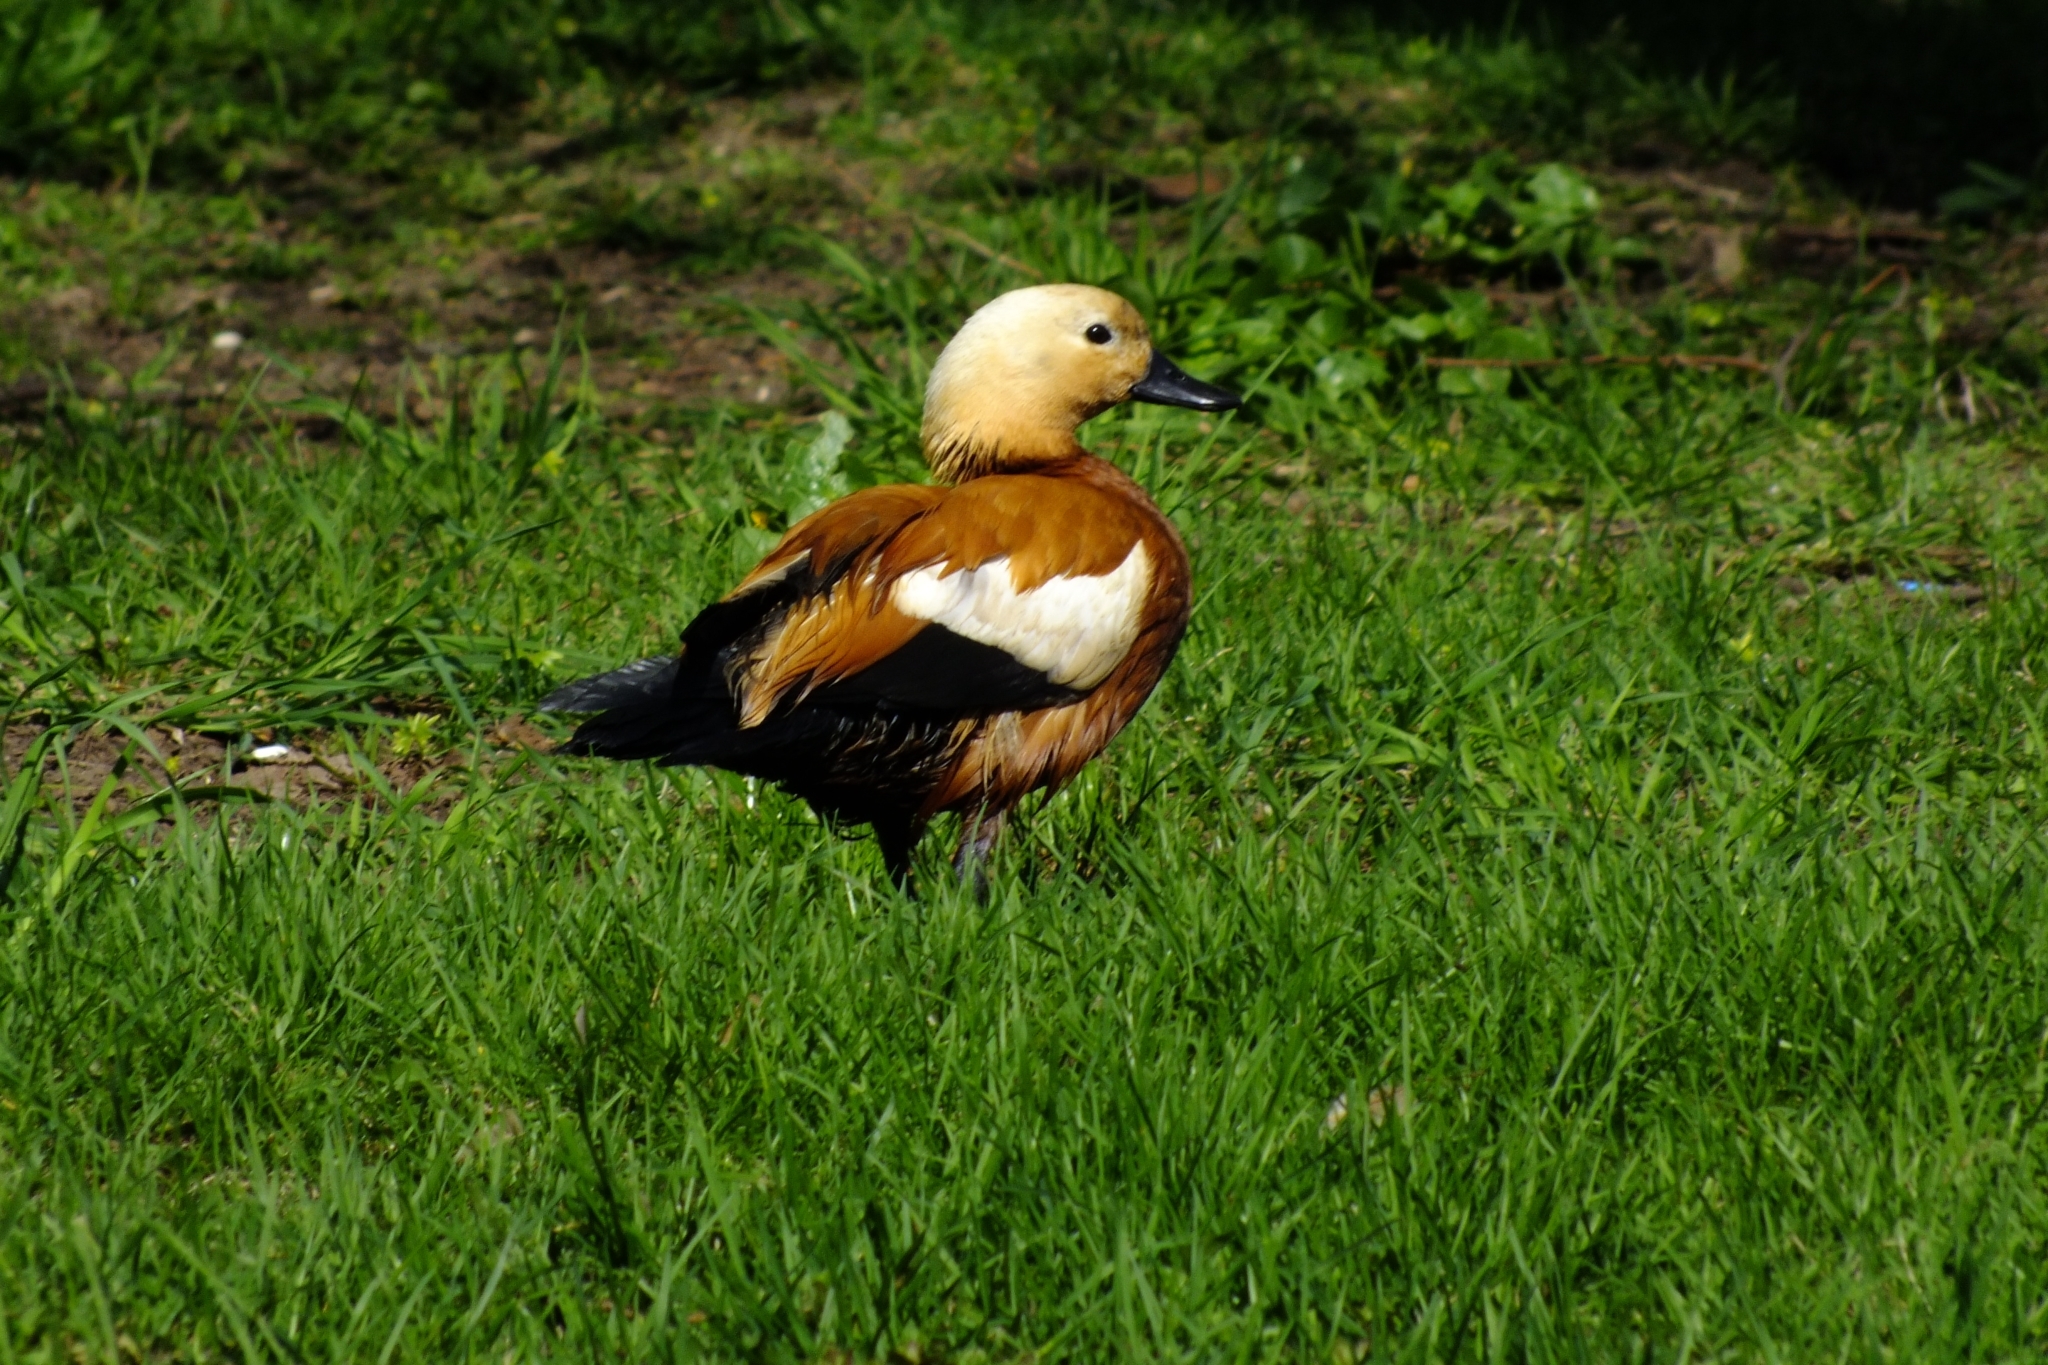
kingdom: Animalia
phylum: Chordata
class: Aves
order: Anseriformes
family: Anatidae
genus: Tadorna
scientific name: Tadorna ferruginea
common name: Ruddy shelduck
